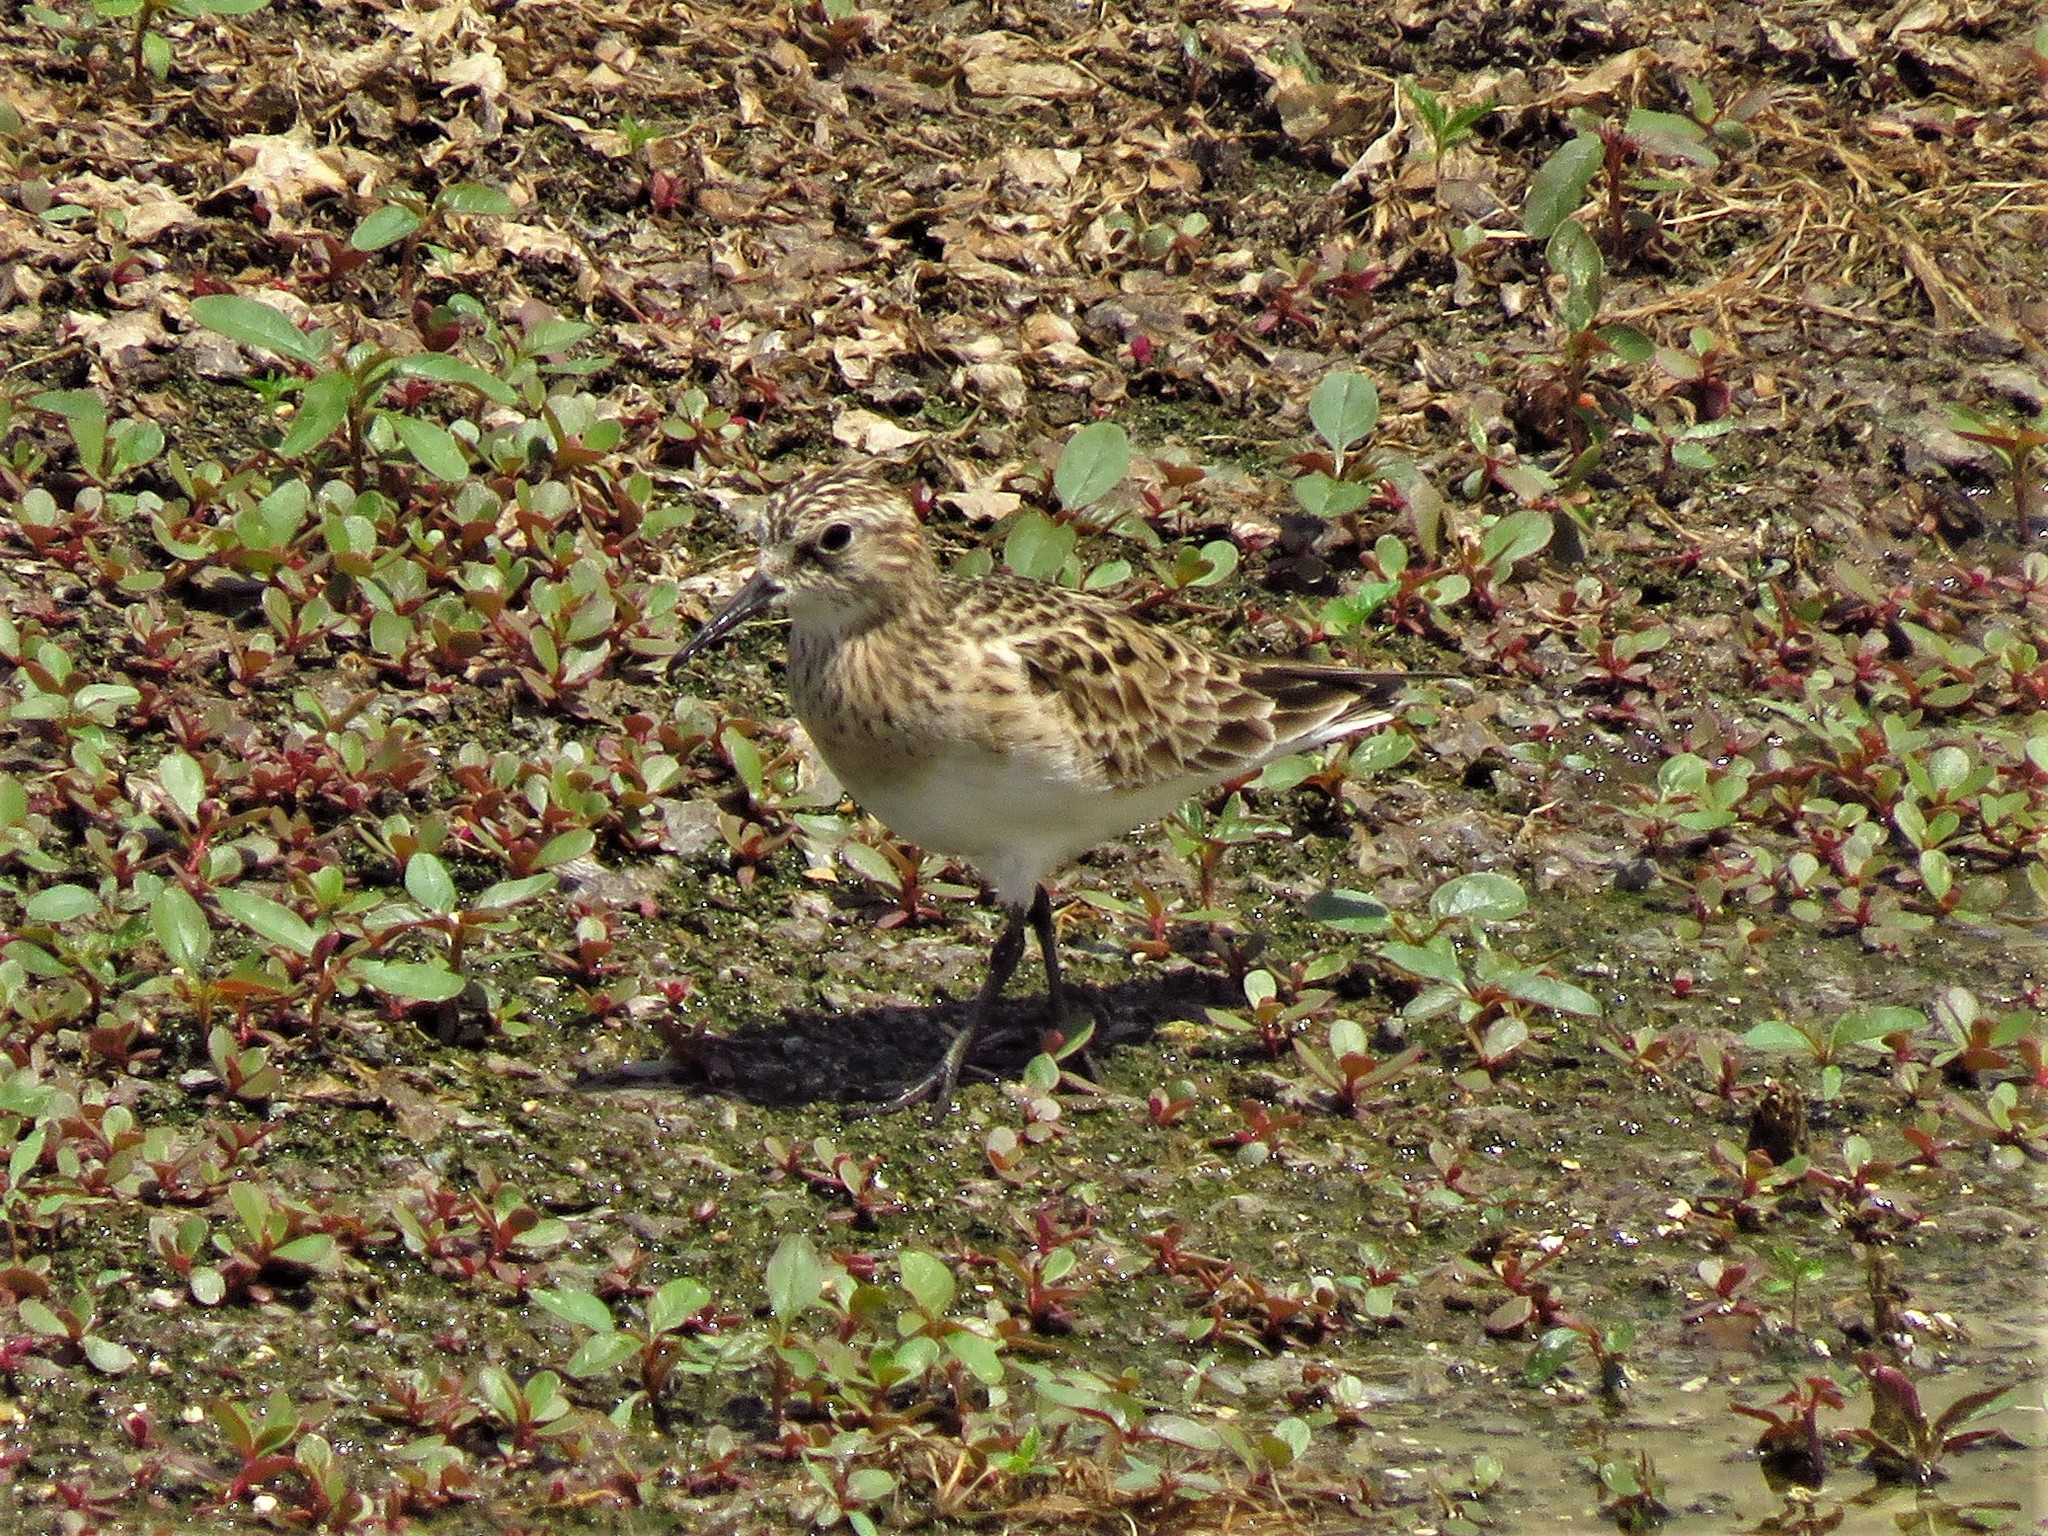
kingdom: Animalia
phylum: Chordata
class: Aves
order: Charadriiformes
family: Scolopacidae
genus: Calidris
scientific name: Calidris bairdii
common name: Baird's sandpiper
